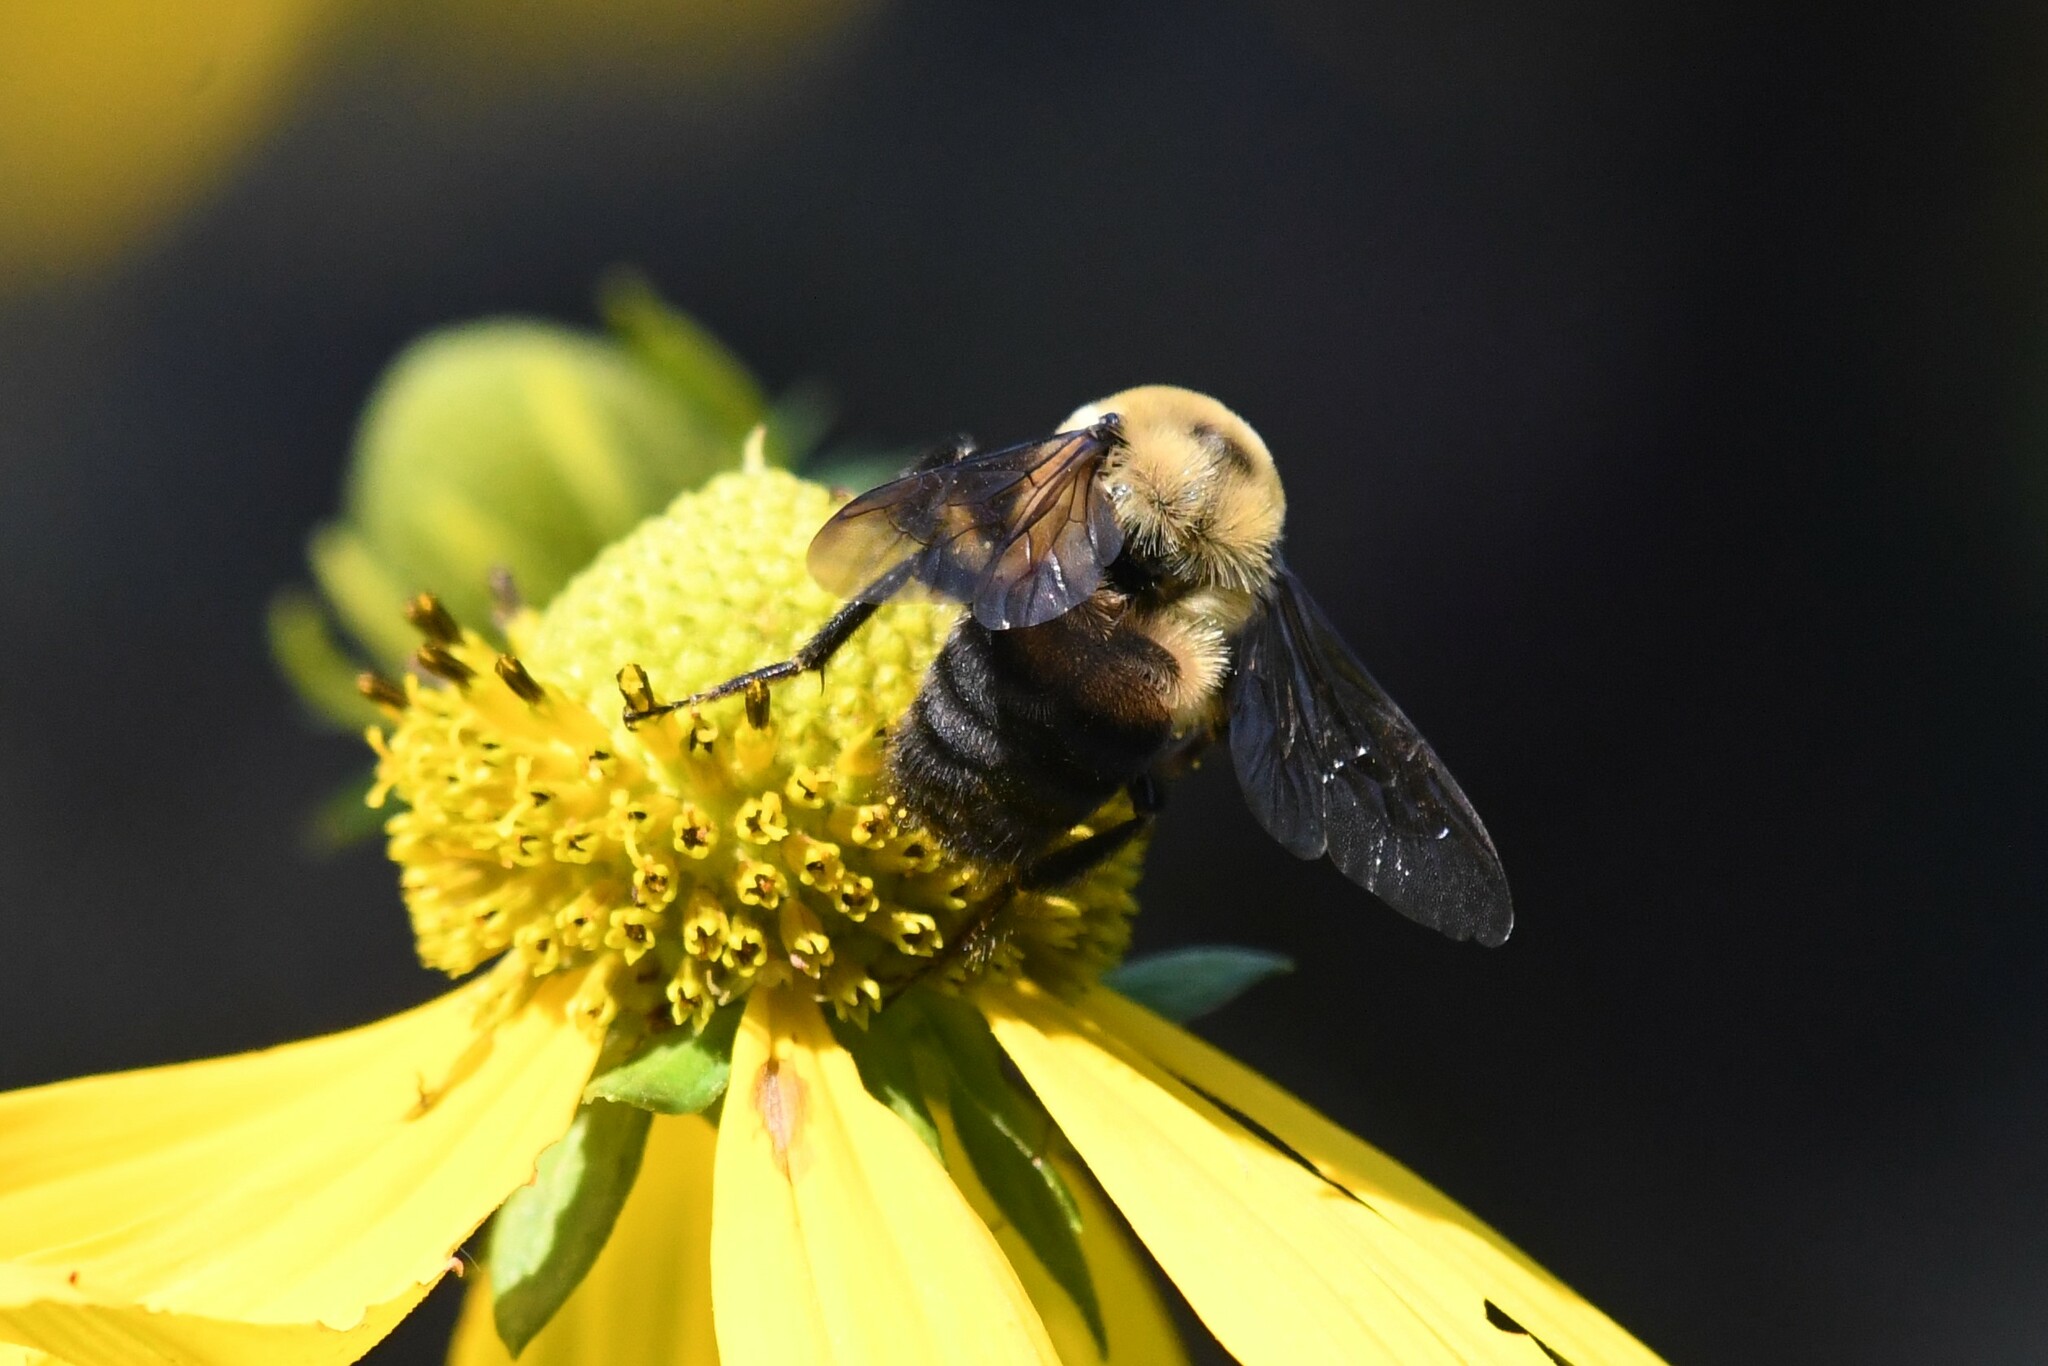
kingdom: Animalia
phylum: Arthropoda
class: Insecta
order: Hymenoptera
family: Apidae
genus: Bombus
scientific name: Bombus griseocollis
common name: Brown-belted bumble bee
